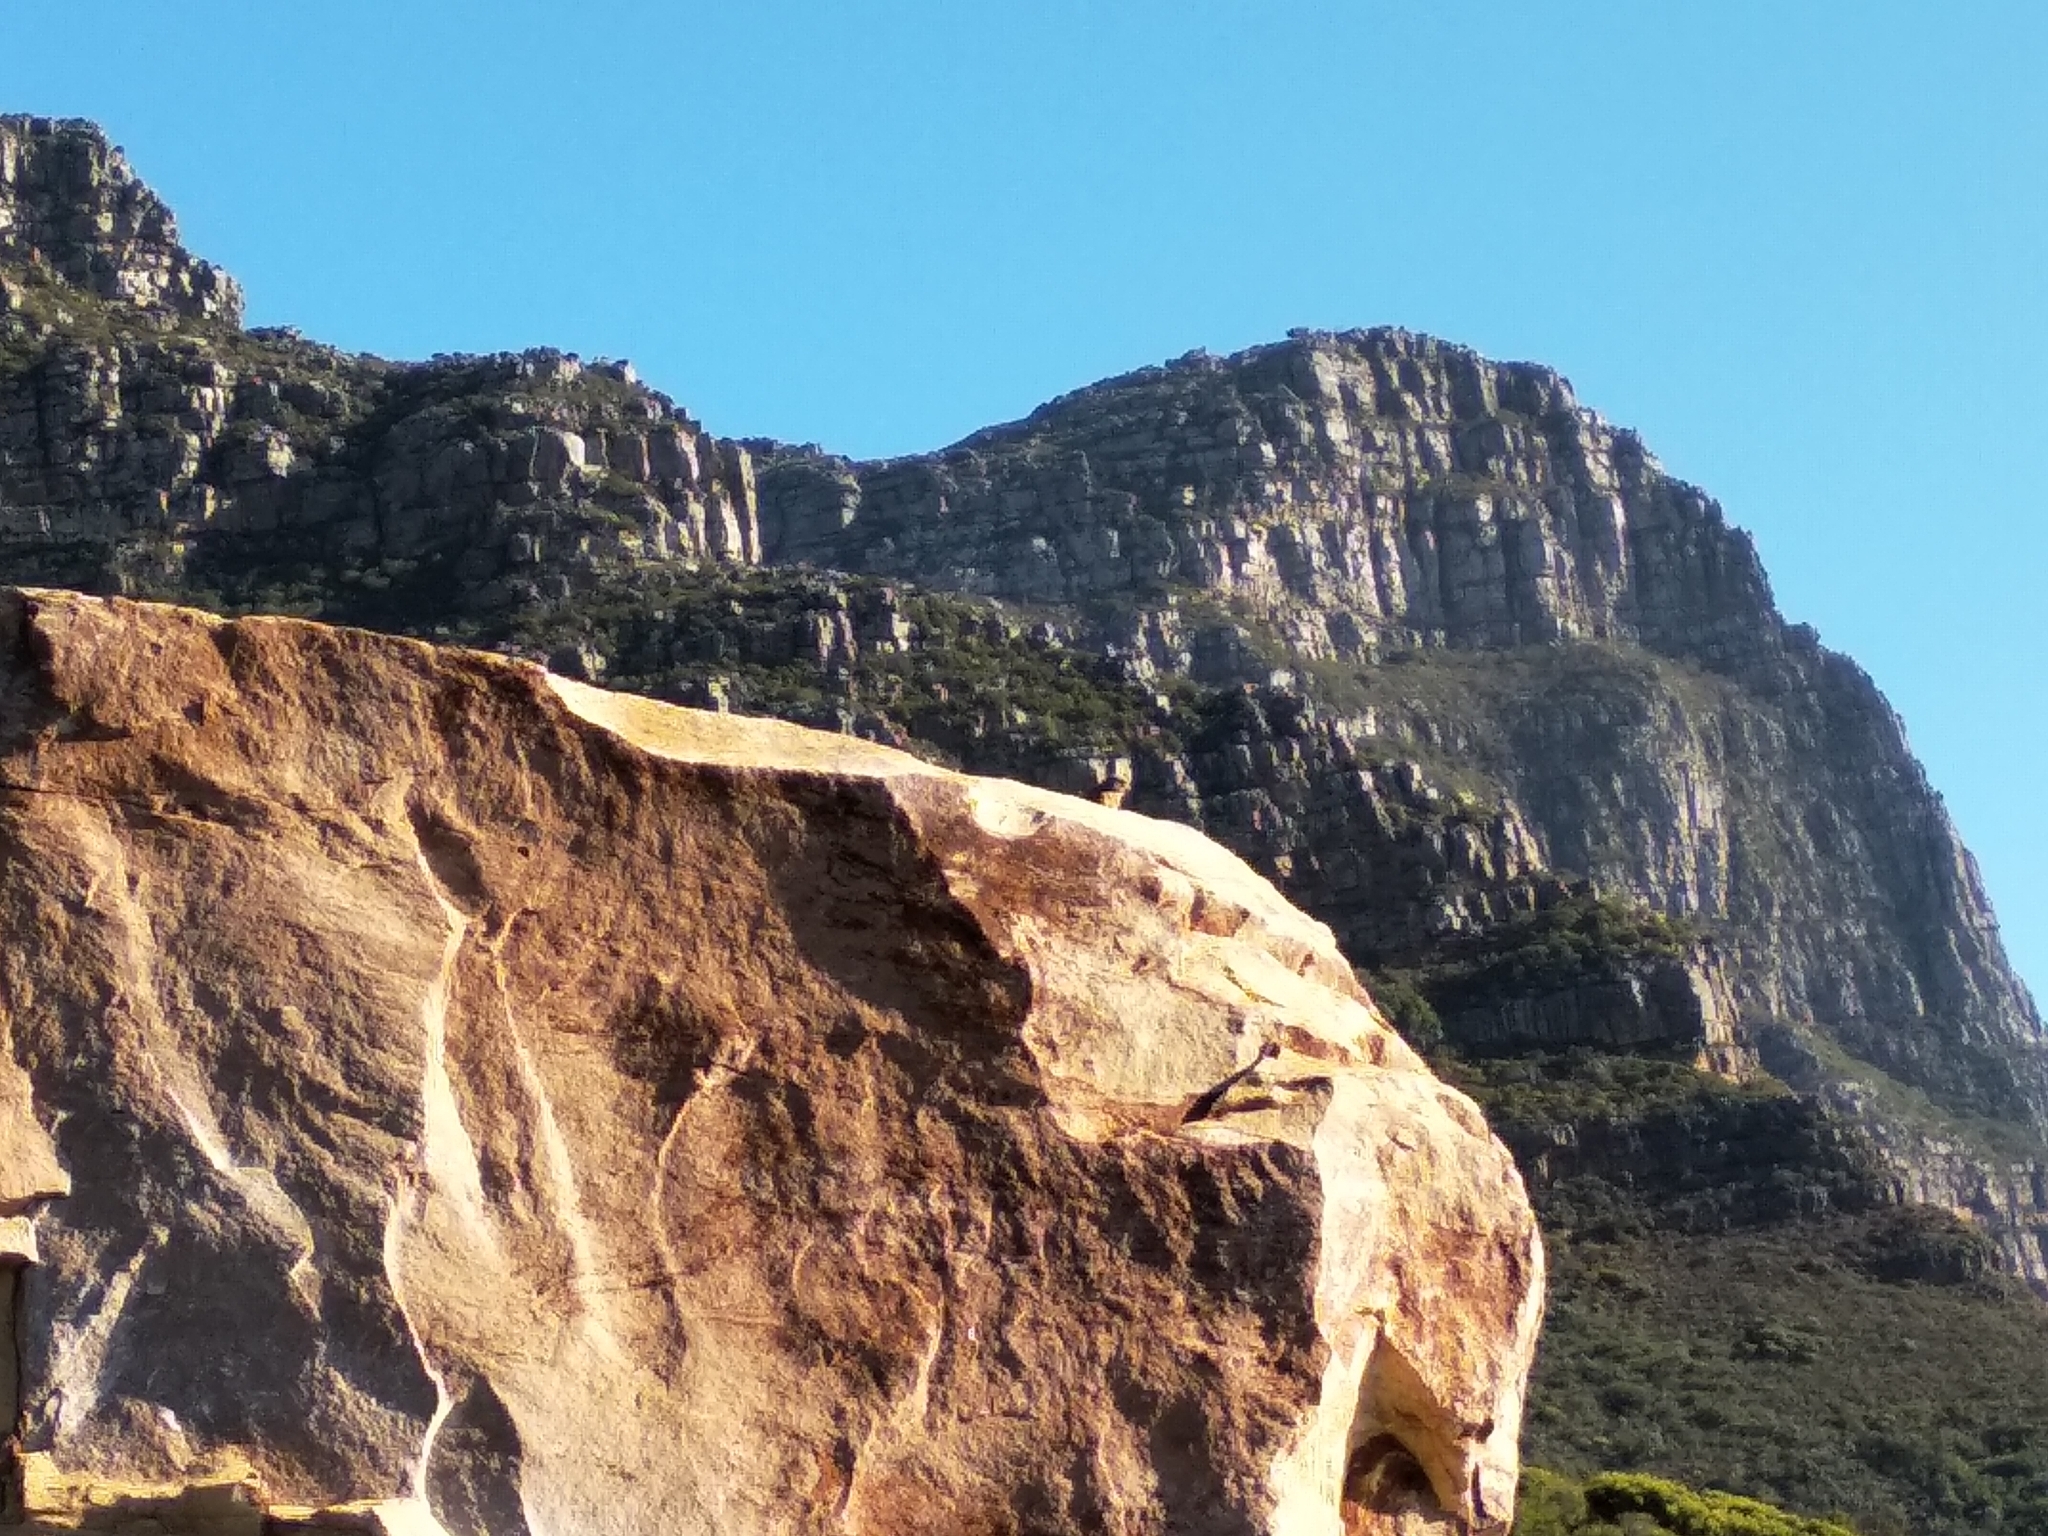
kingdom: Animalia
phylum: Chordata
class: Aves
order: Falconiformes
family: Falconidae
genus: Falco
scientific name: Falco rupicolus
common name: Rock kestrel
